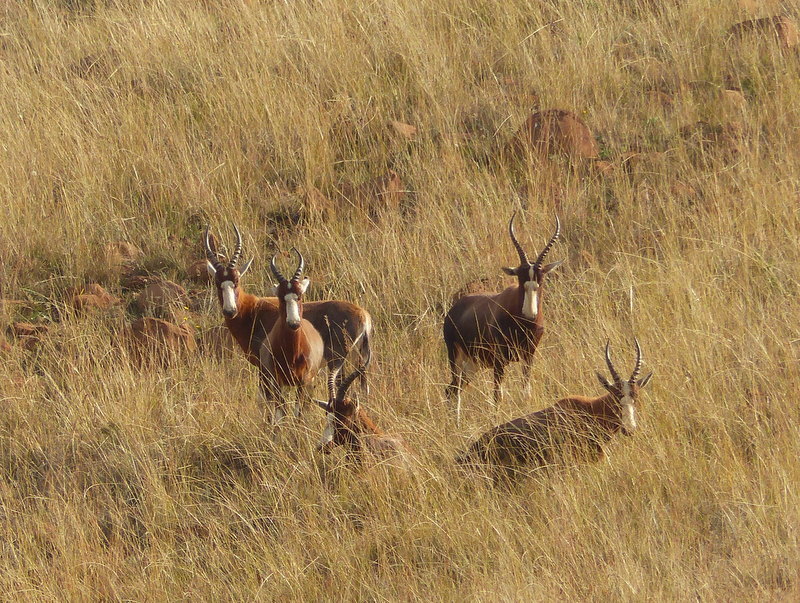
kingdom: Animalia
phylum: Chordata
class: Mammalia
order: Artiodactyla
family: Bovidae
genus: Damaliscus
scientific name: Damaliscus pygargus
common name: Bontebok
